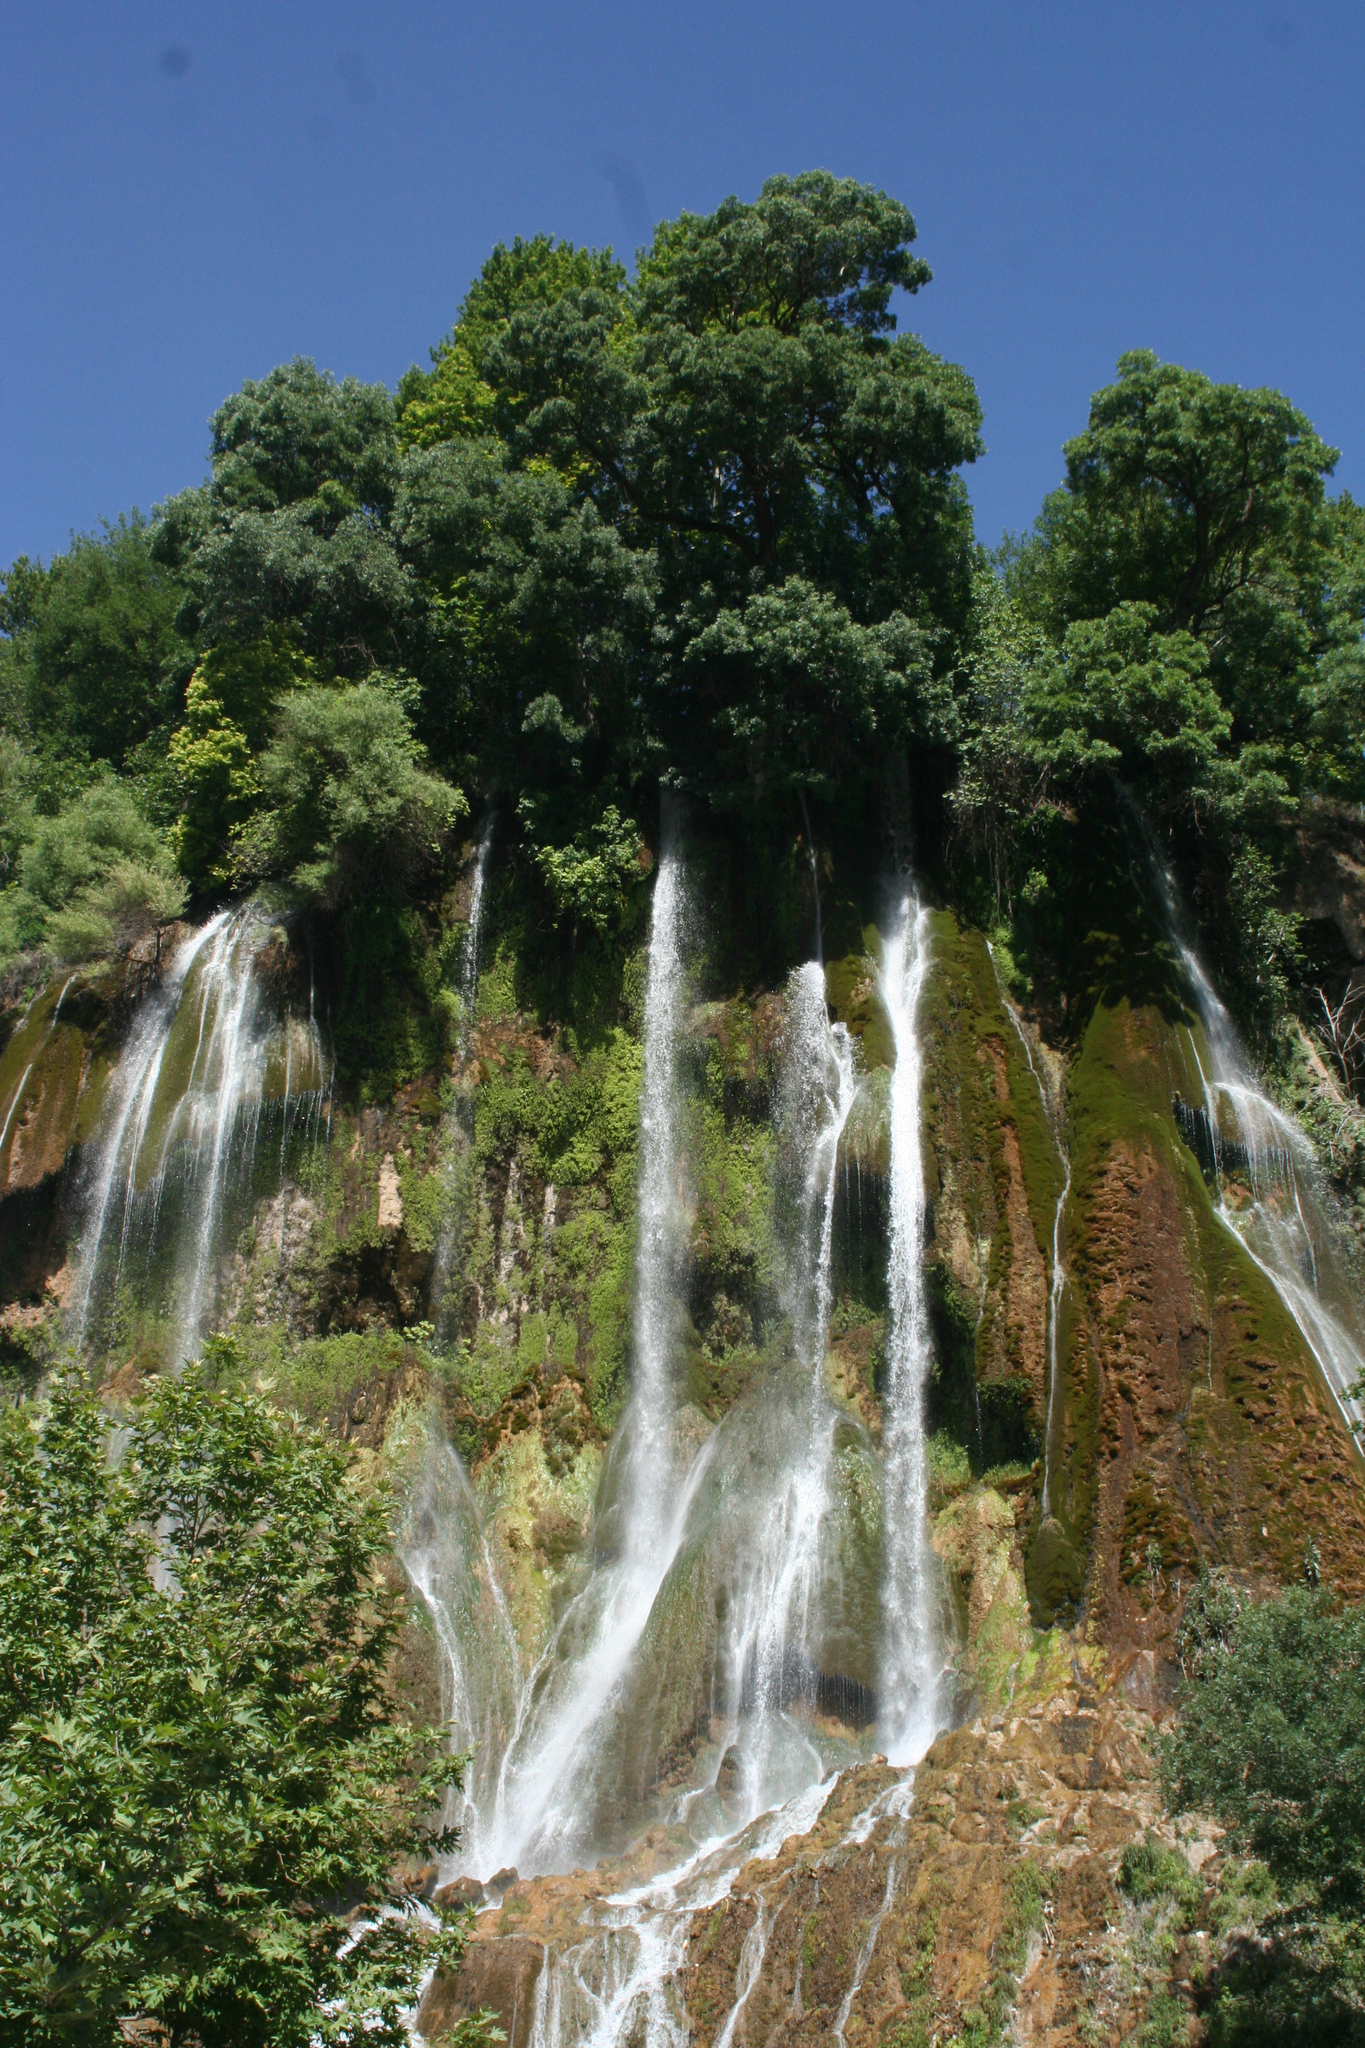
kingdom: Plantae
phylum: Tracheophyta
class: Magnoliopsida
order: Proteales
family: Platanaceae
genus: Platanus
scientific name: Platanus orientalis
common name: Oriental plane
